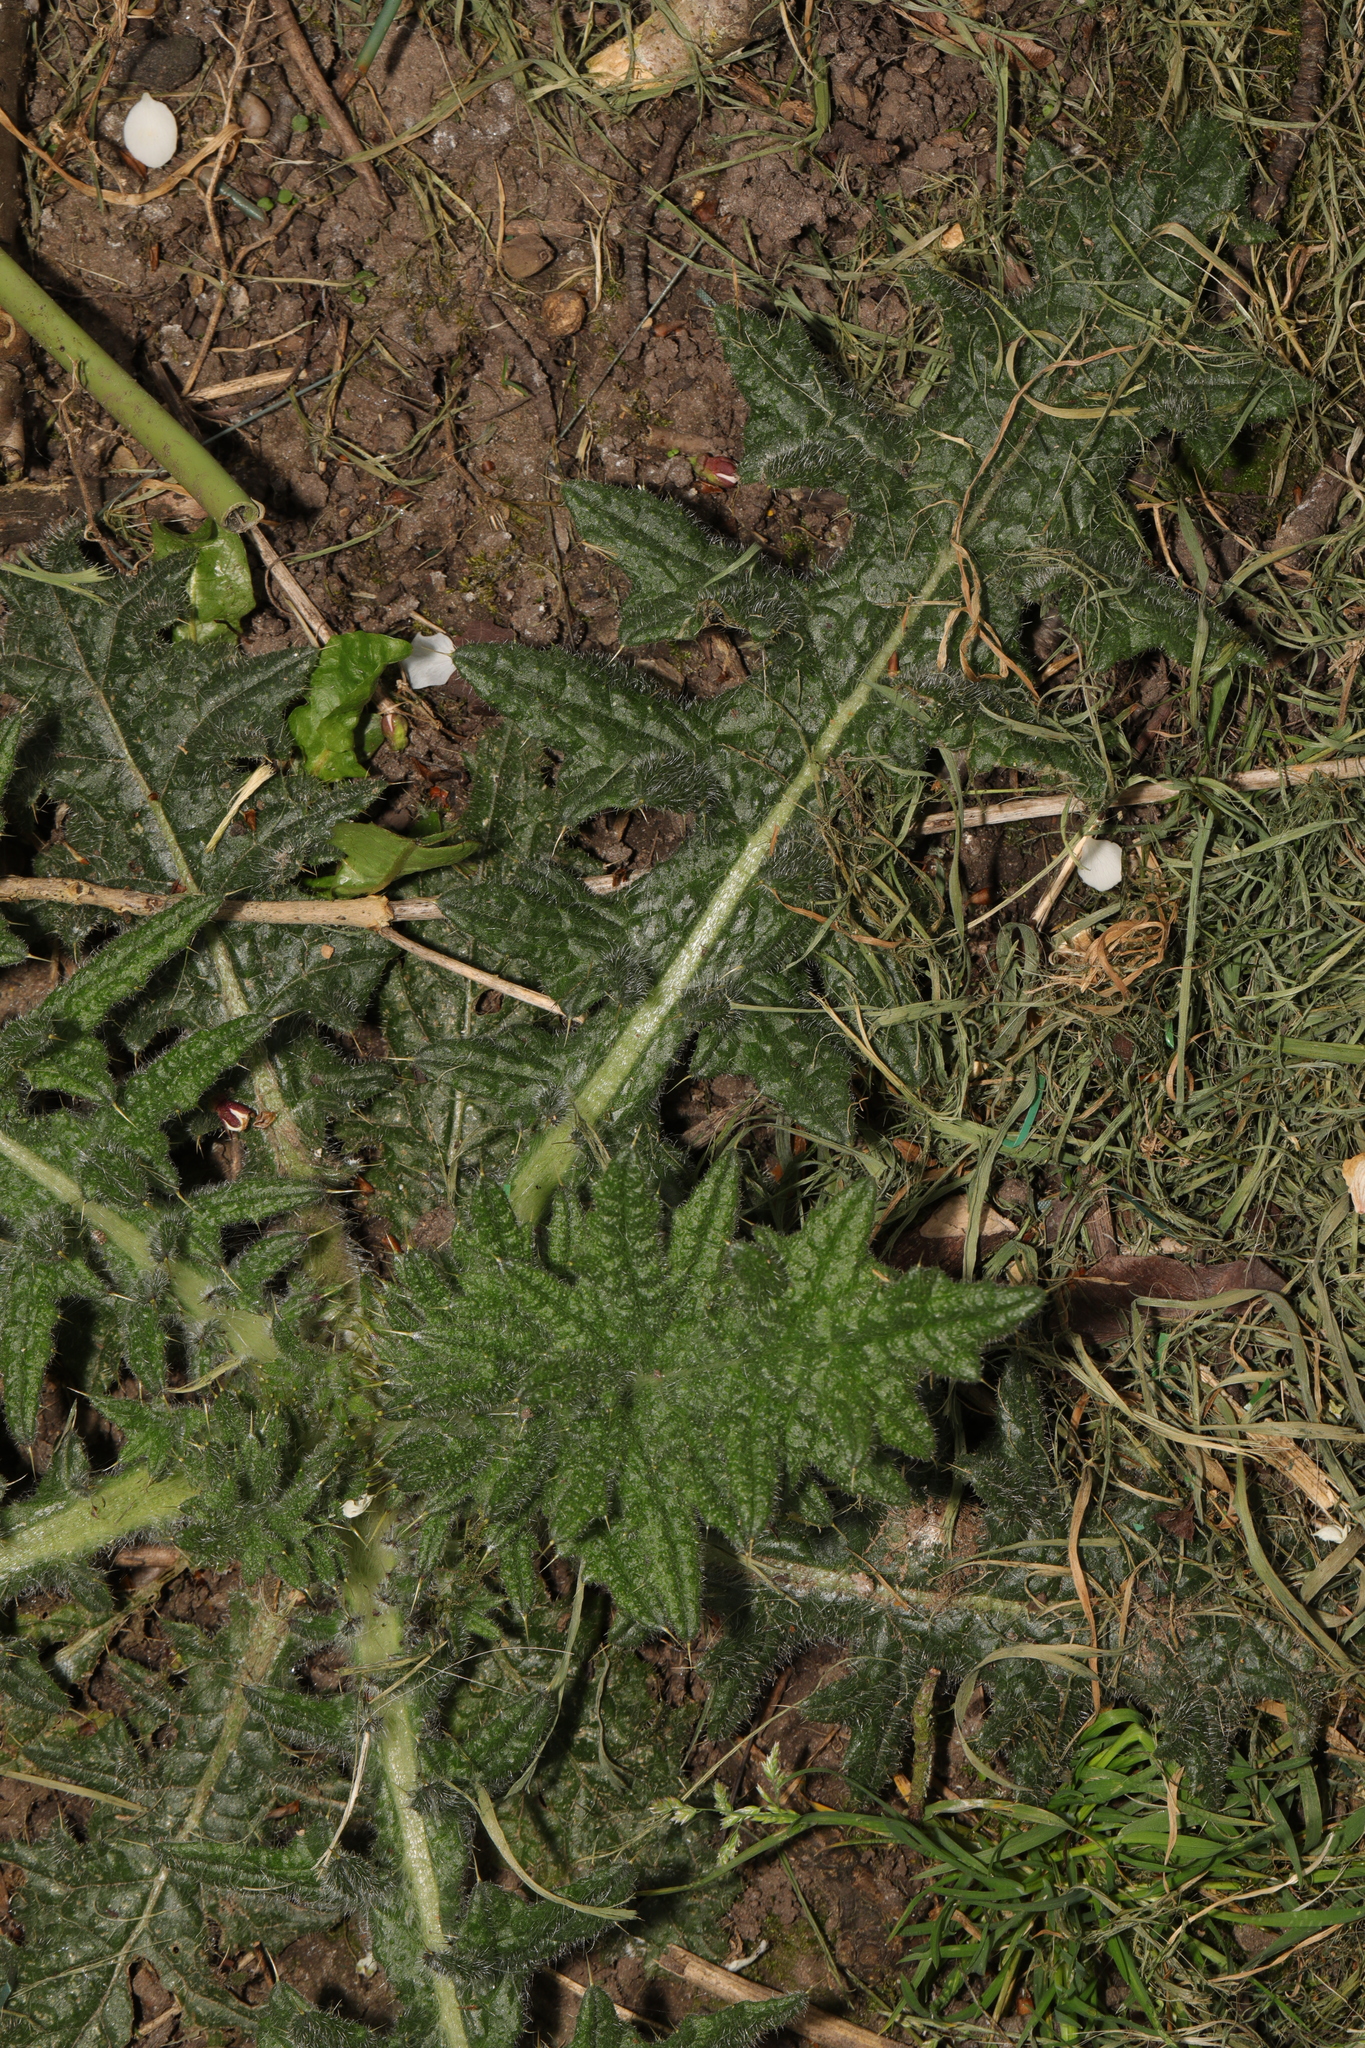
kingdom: Plantae
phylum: Tracheophyta
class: Magnoliopsida
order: Asterales
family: Asteraceae
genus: Cirsium
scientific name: Cirsium vulgare
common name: Bull thistle
